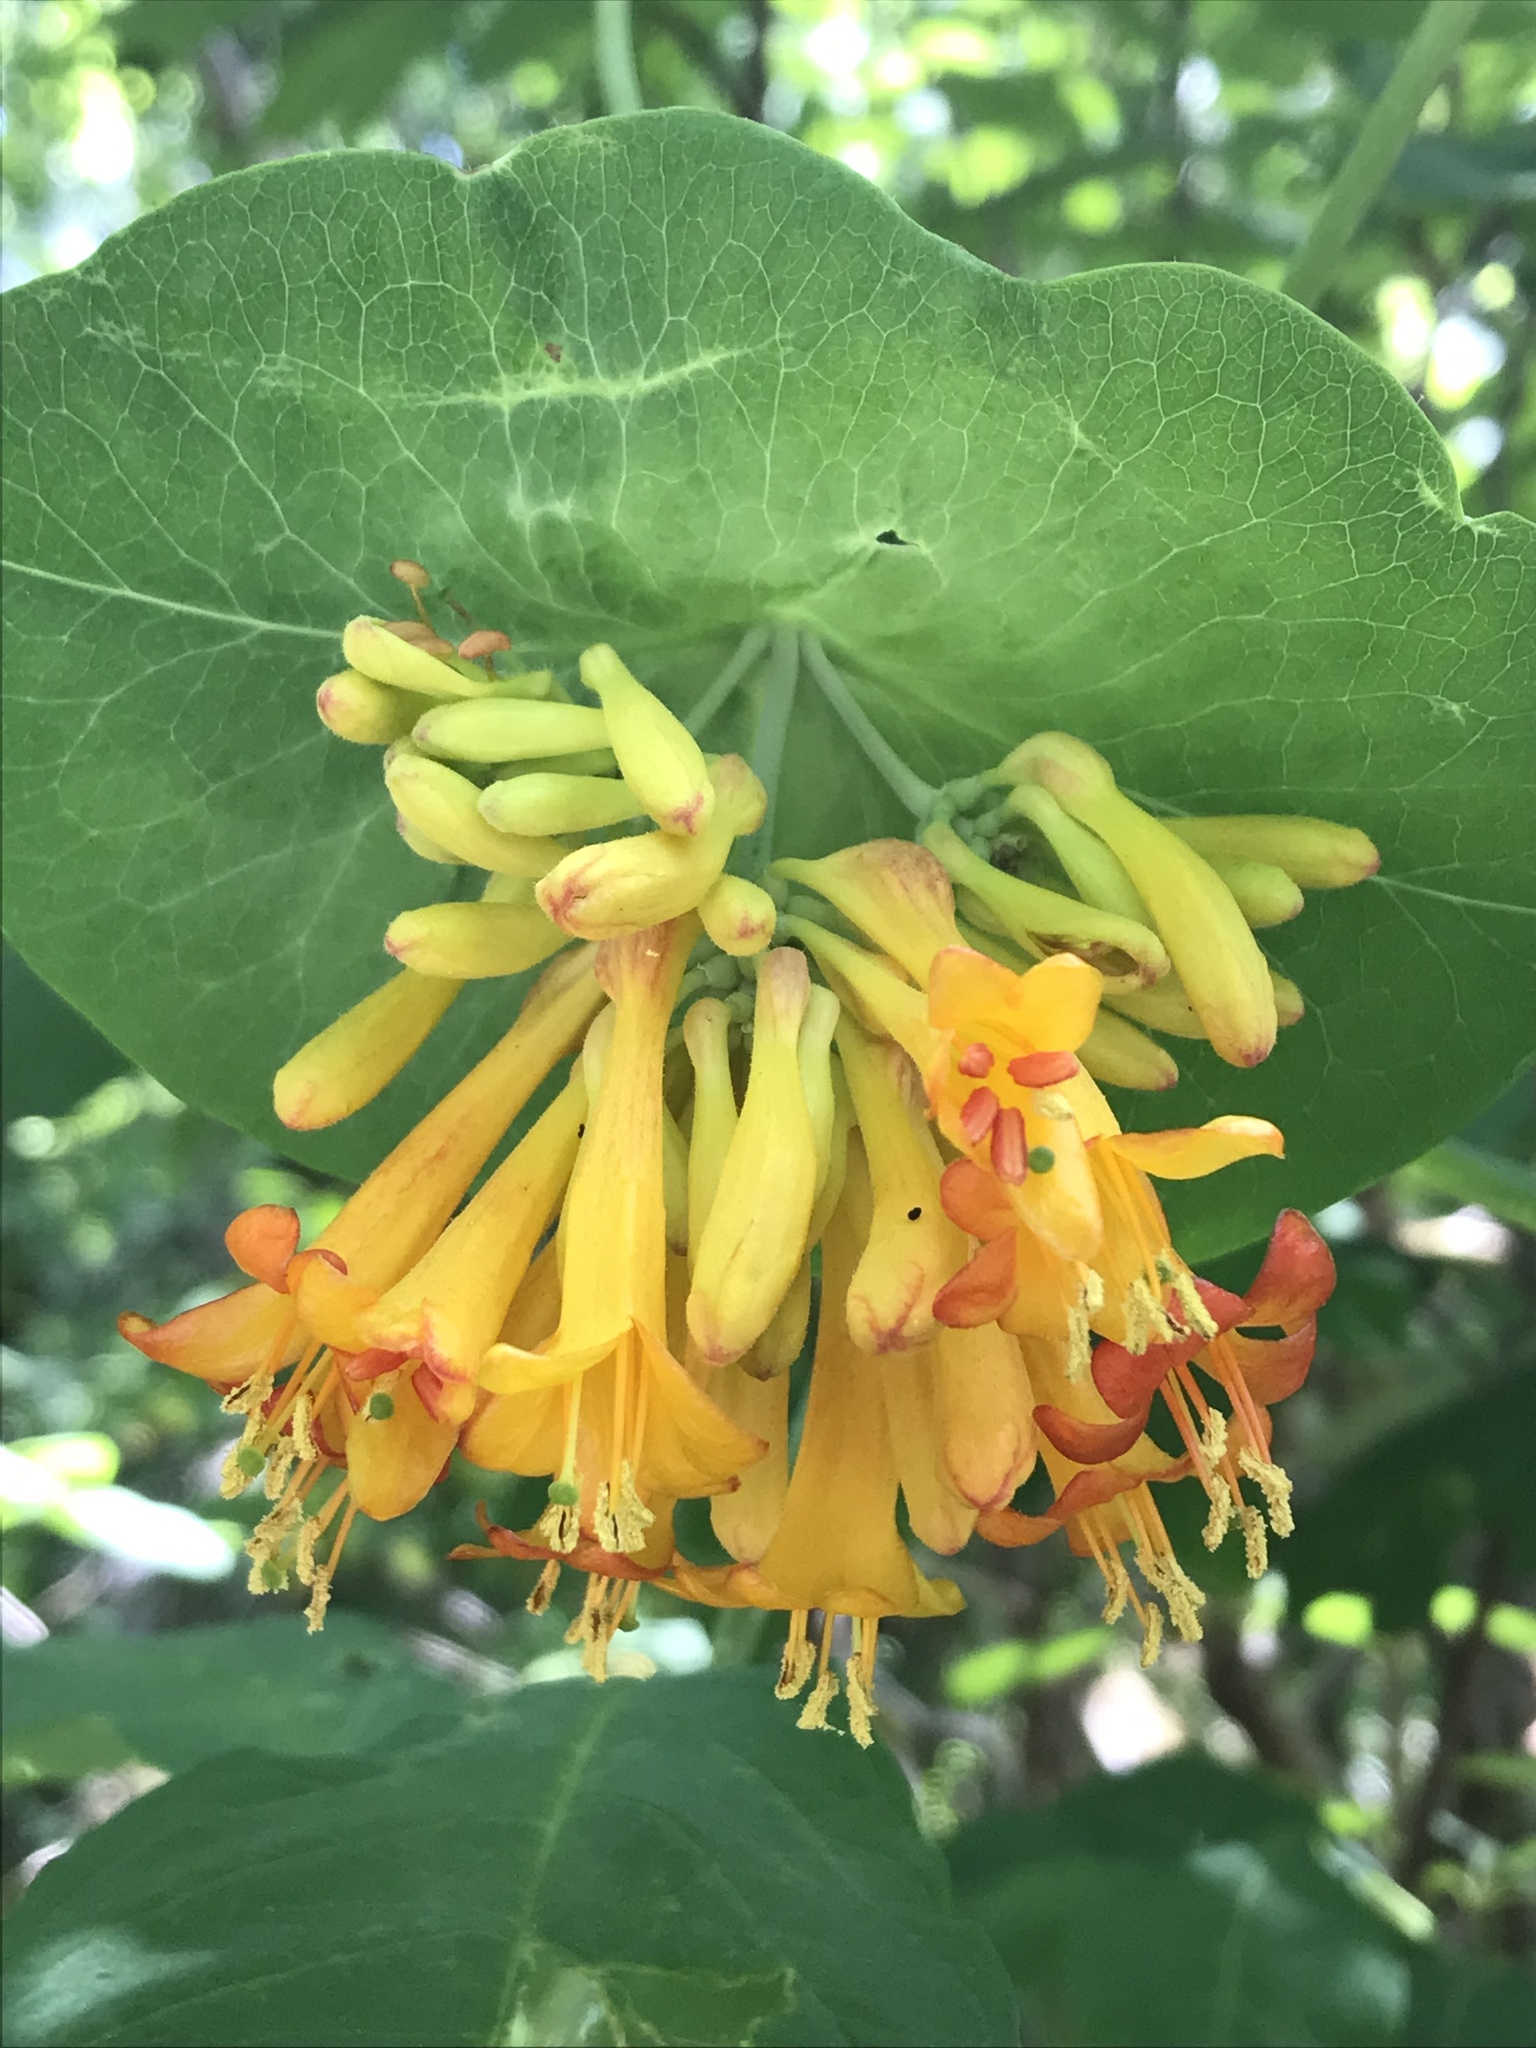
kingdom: Plantae
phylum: Tracheophyta
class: Magnoliopsida
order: Dipsacales
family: Caprifoliaceae
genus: Lonicera
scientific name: Lonicera ciliosa
